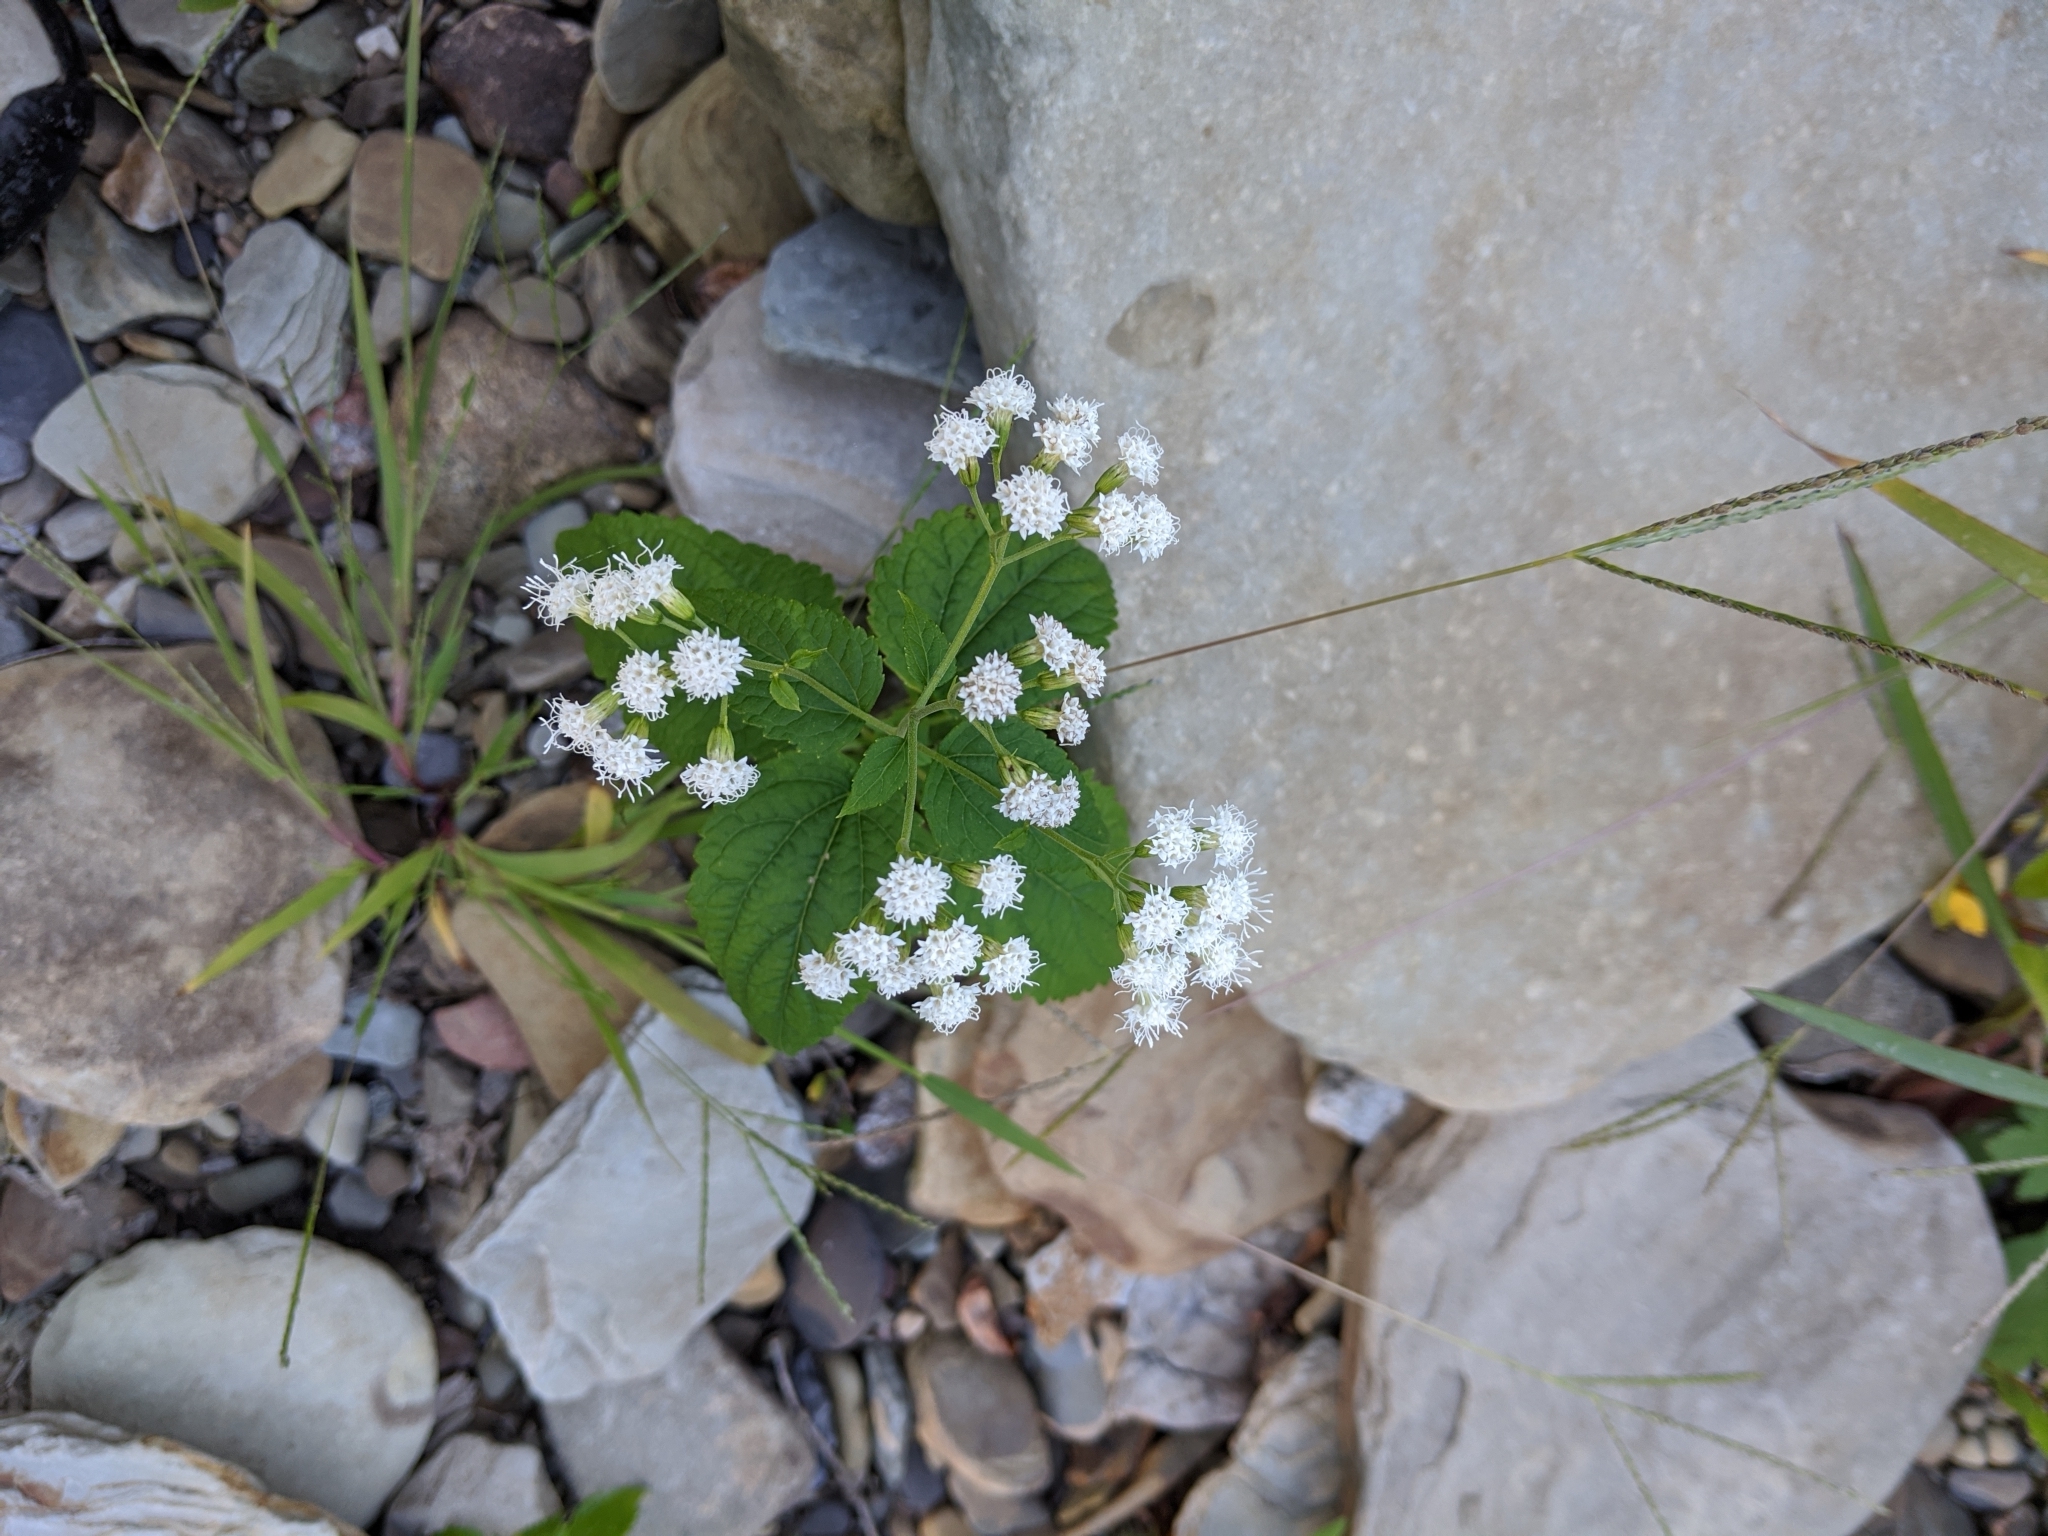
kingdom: Plantae
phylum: Tracheophyta
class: Magnoliopsida
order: Asterales
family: Asteraceae
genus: Ageratina
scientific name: Ageratina altissima
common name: White snakeroot
